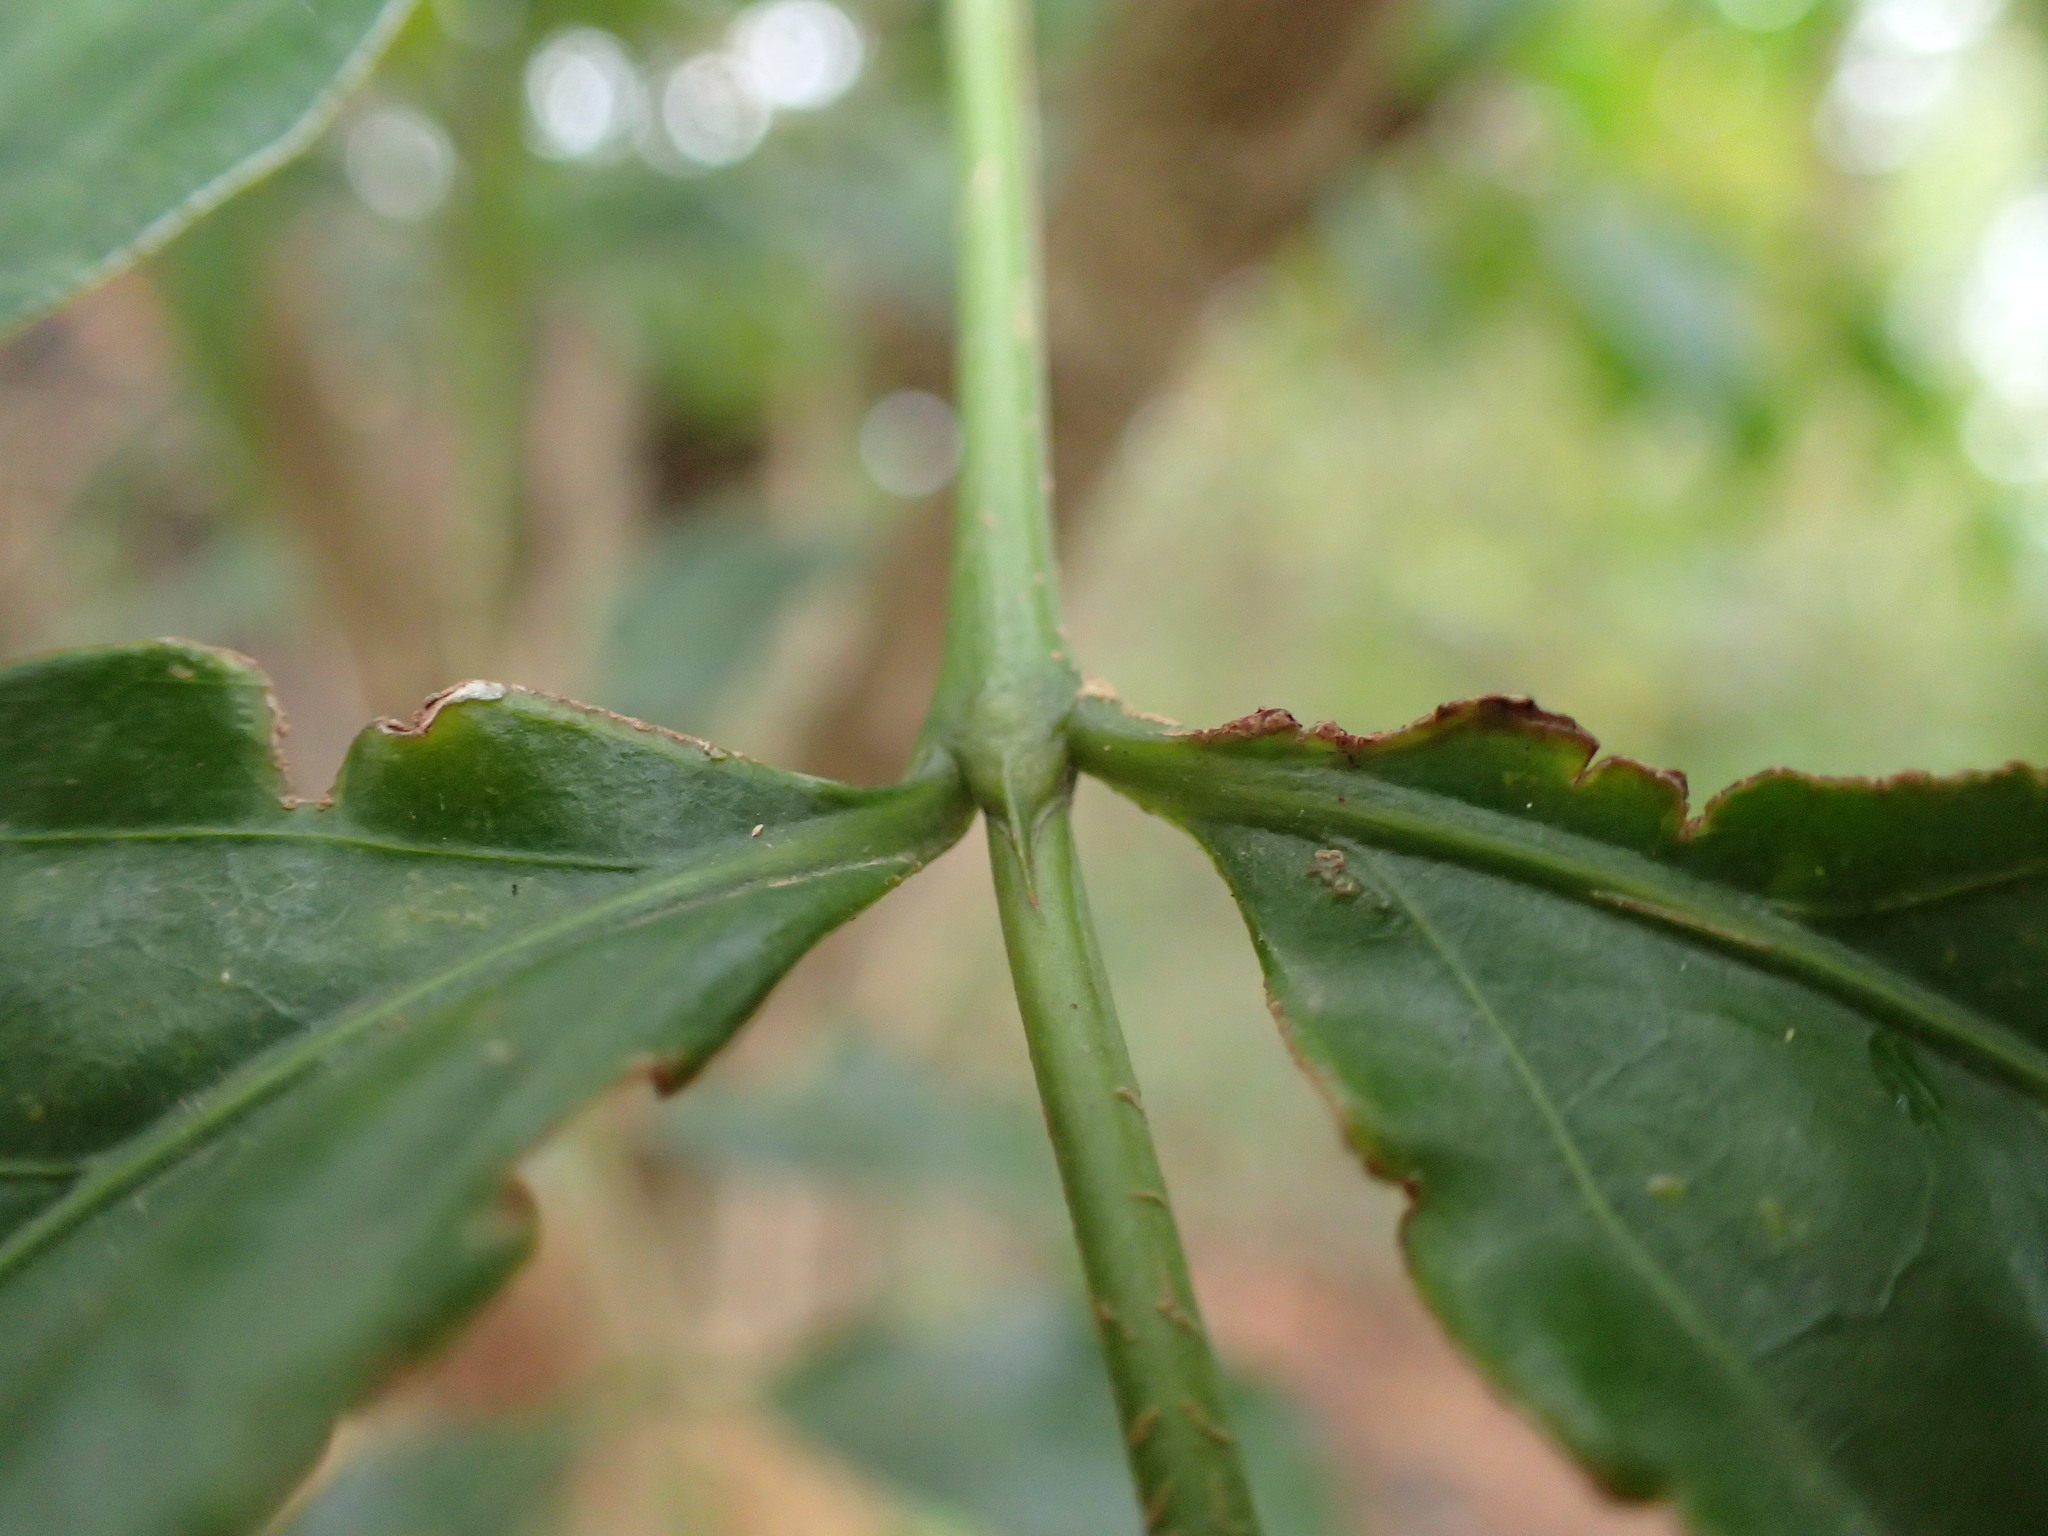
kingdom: Plantae
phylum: Tracheophyta
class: Magnoliopsida
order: Gentianales
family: Rubiaceae
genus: Kraussia
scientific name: Kraussia floribunda
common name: Rhino-coffee
